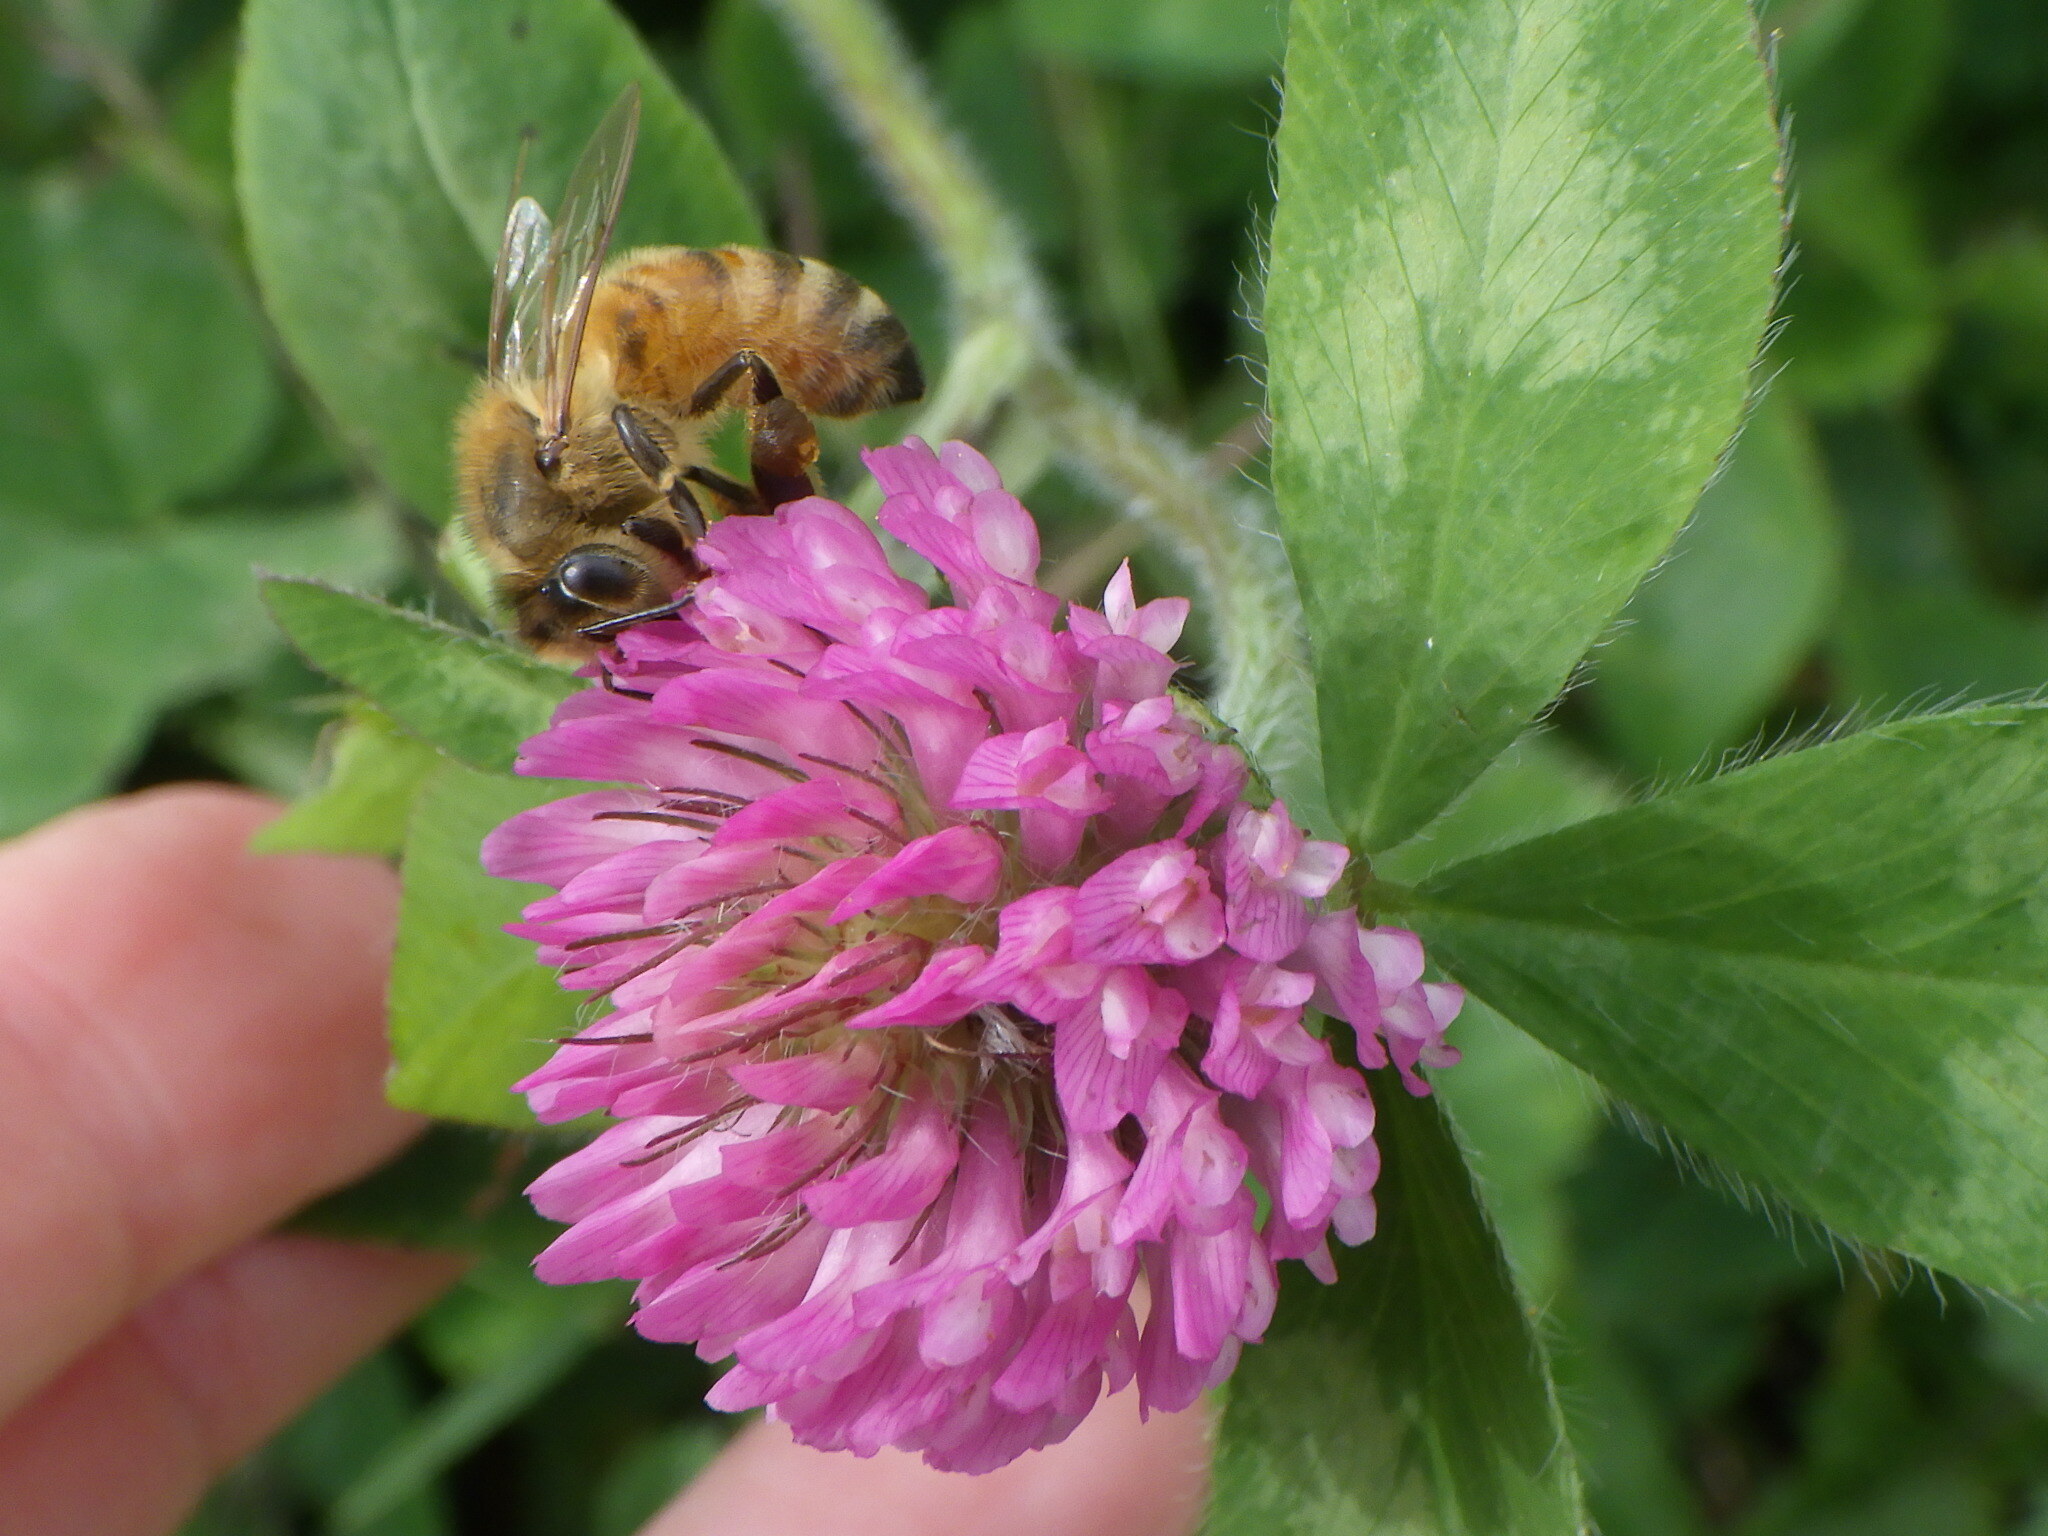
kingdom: Animalia
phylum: Arthropoda
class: Insecta
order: Hymenoptera
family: Apidae
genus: Apis
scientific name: Apis mellifera
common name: Honey bee
